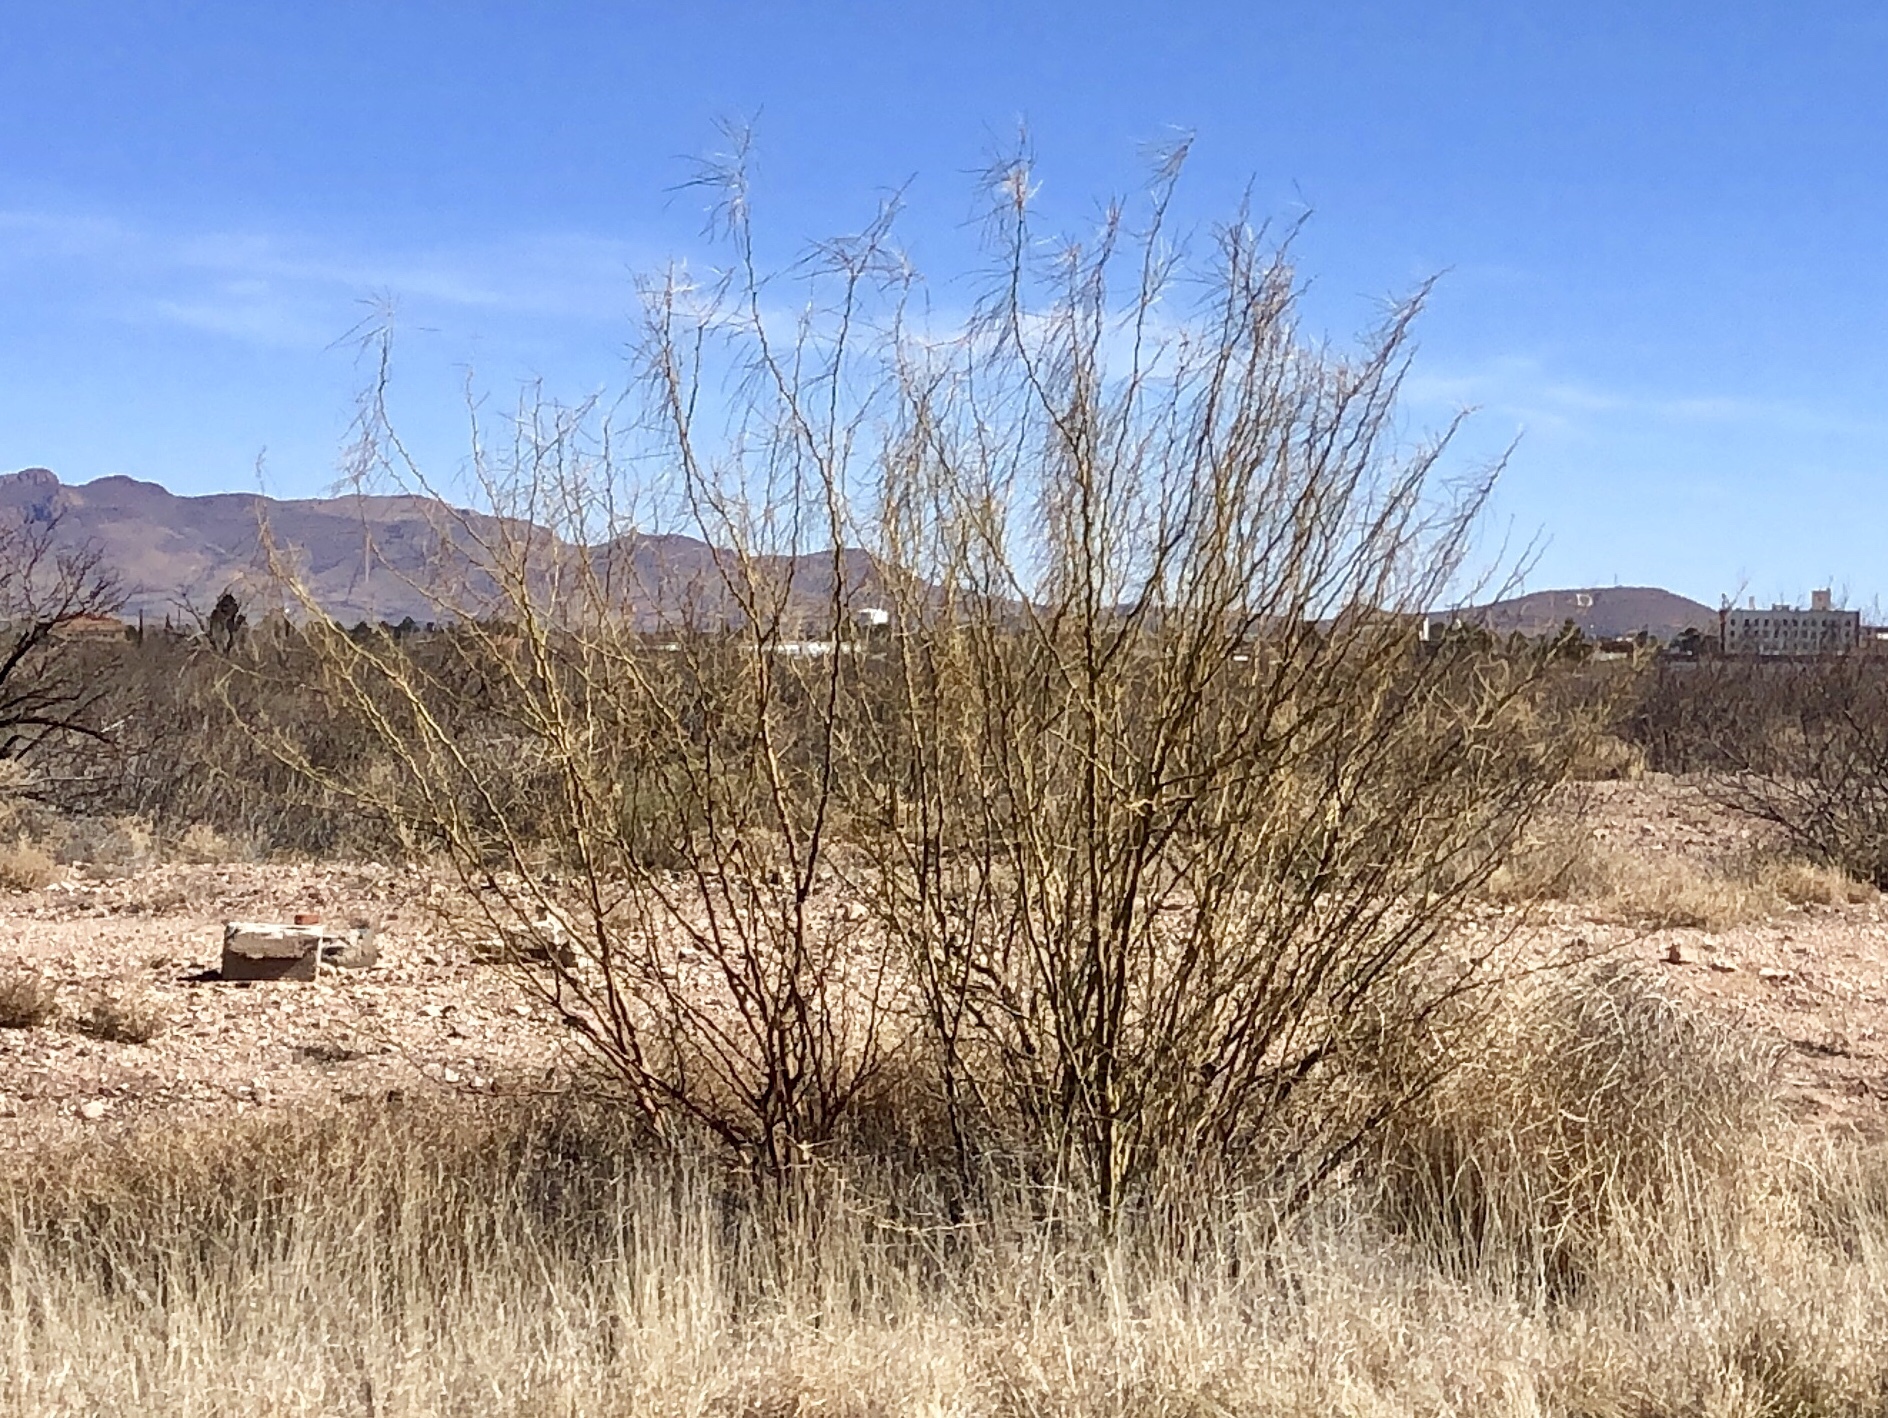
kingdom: Plantae
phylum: Tracheophyta
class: Magnoliopsida
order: Fabales
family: Fabaceae
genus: Parkinsonia
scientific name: Parkinsonia aculeata
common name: Jerusalem thorn
